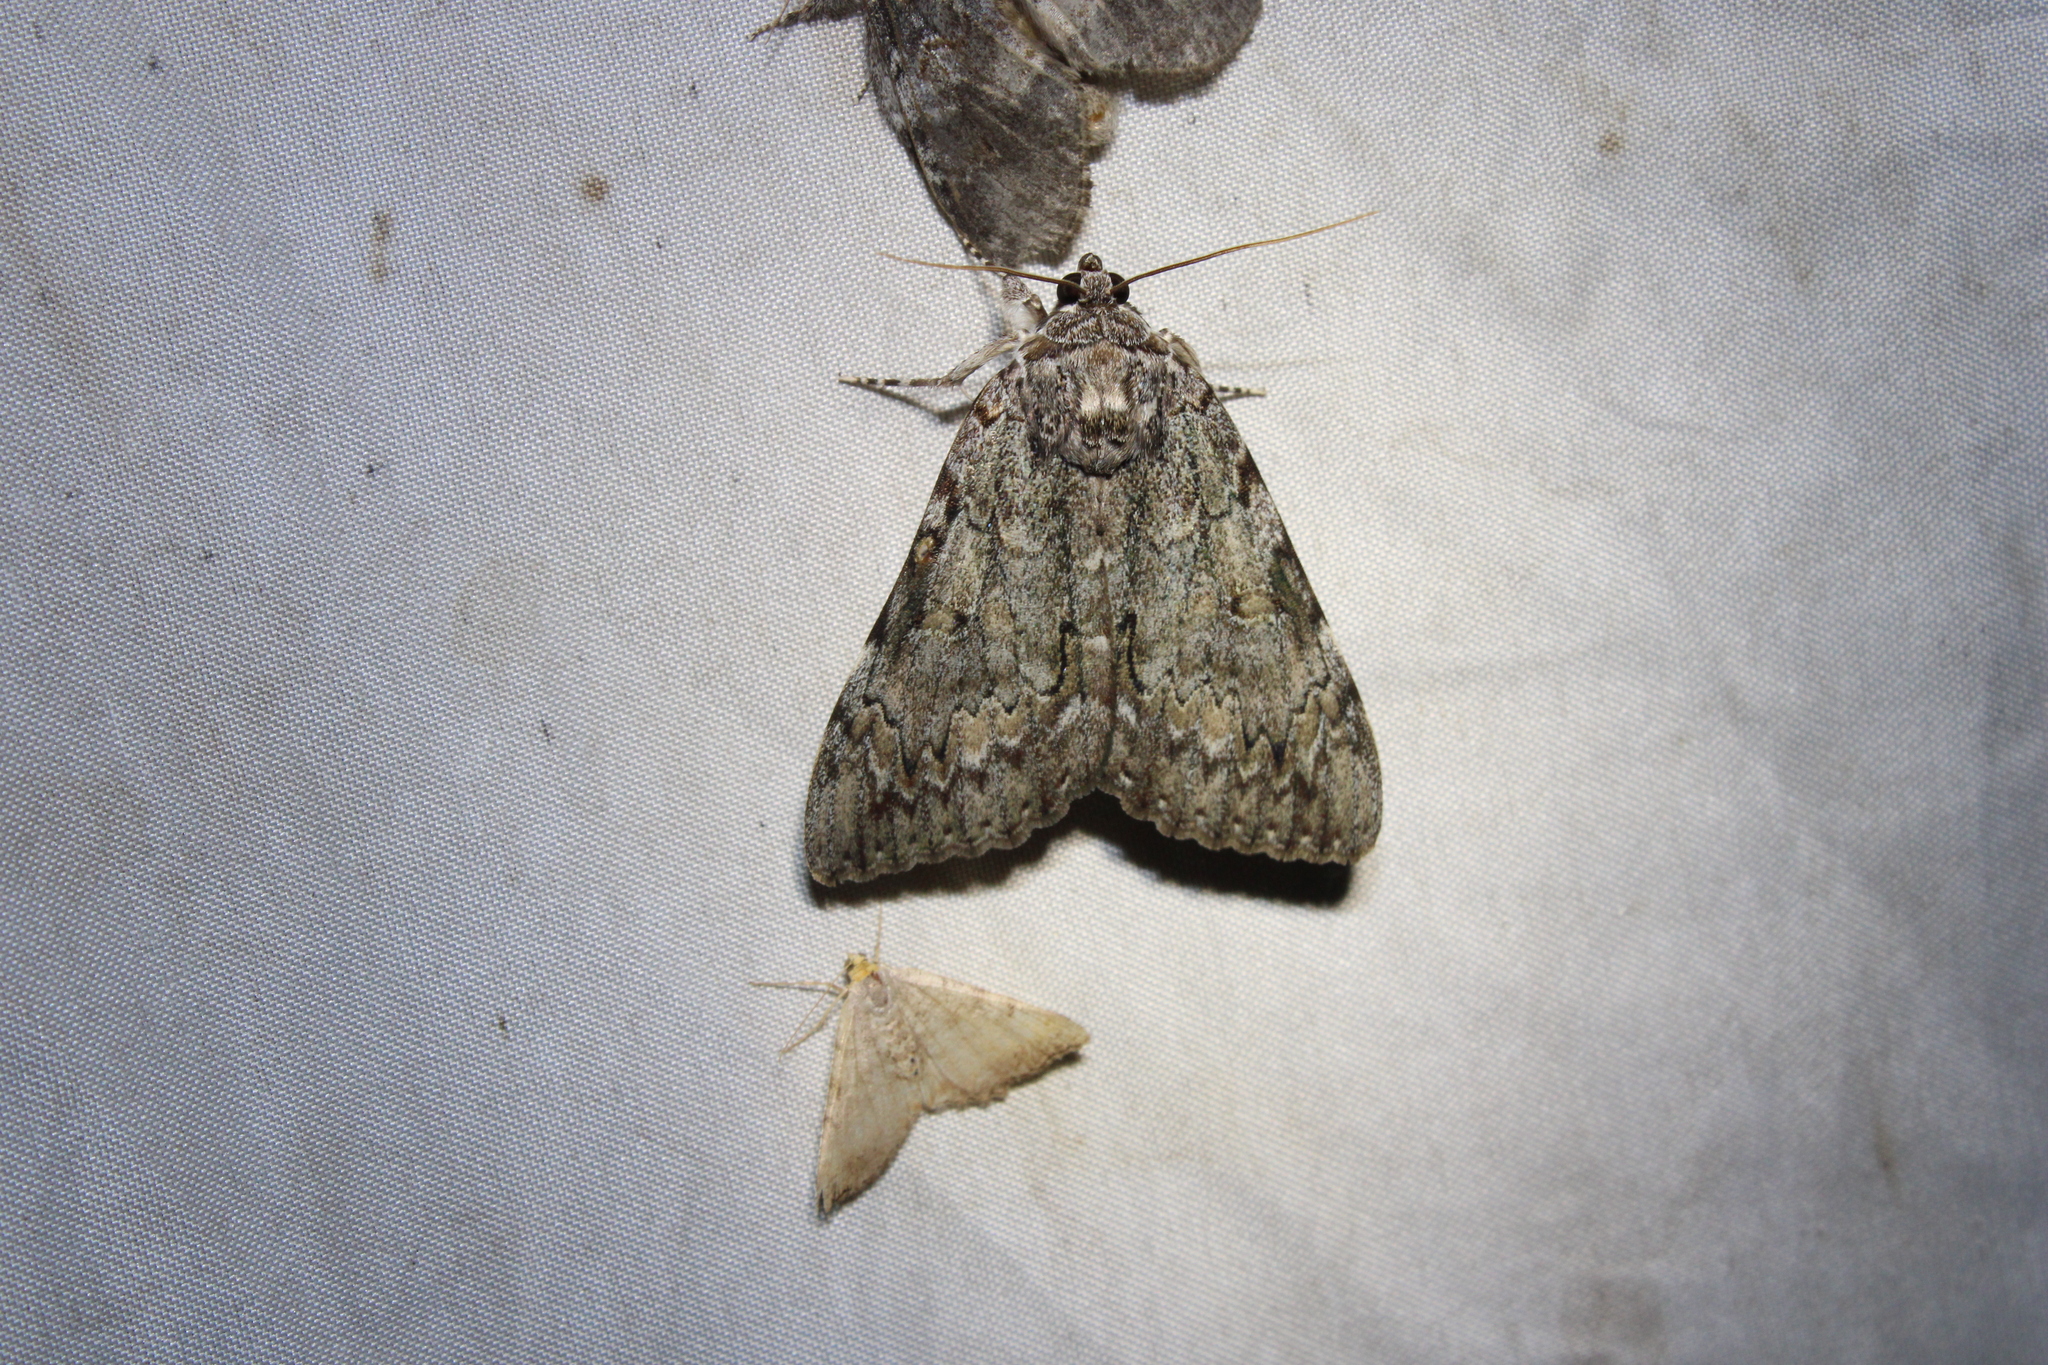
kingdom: Animalia
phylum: Arthropoda
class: Insecta
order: Lepidoptera
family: Erebidae
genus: Catocala
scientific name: Catocala palaeogama
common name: Oldwife underwing
